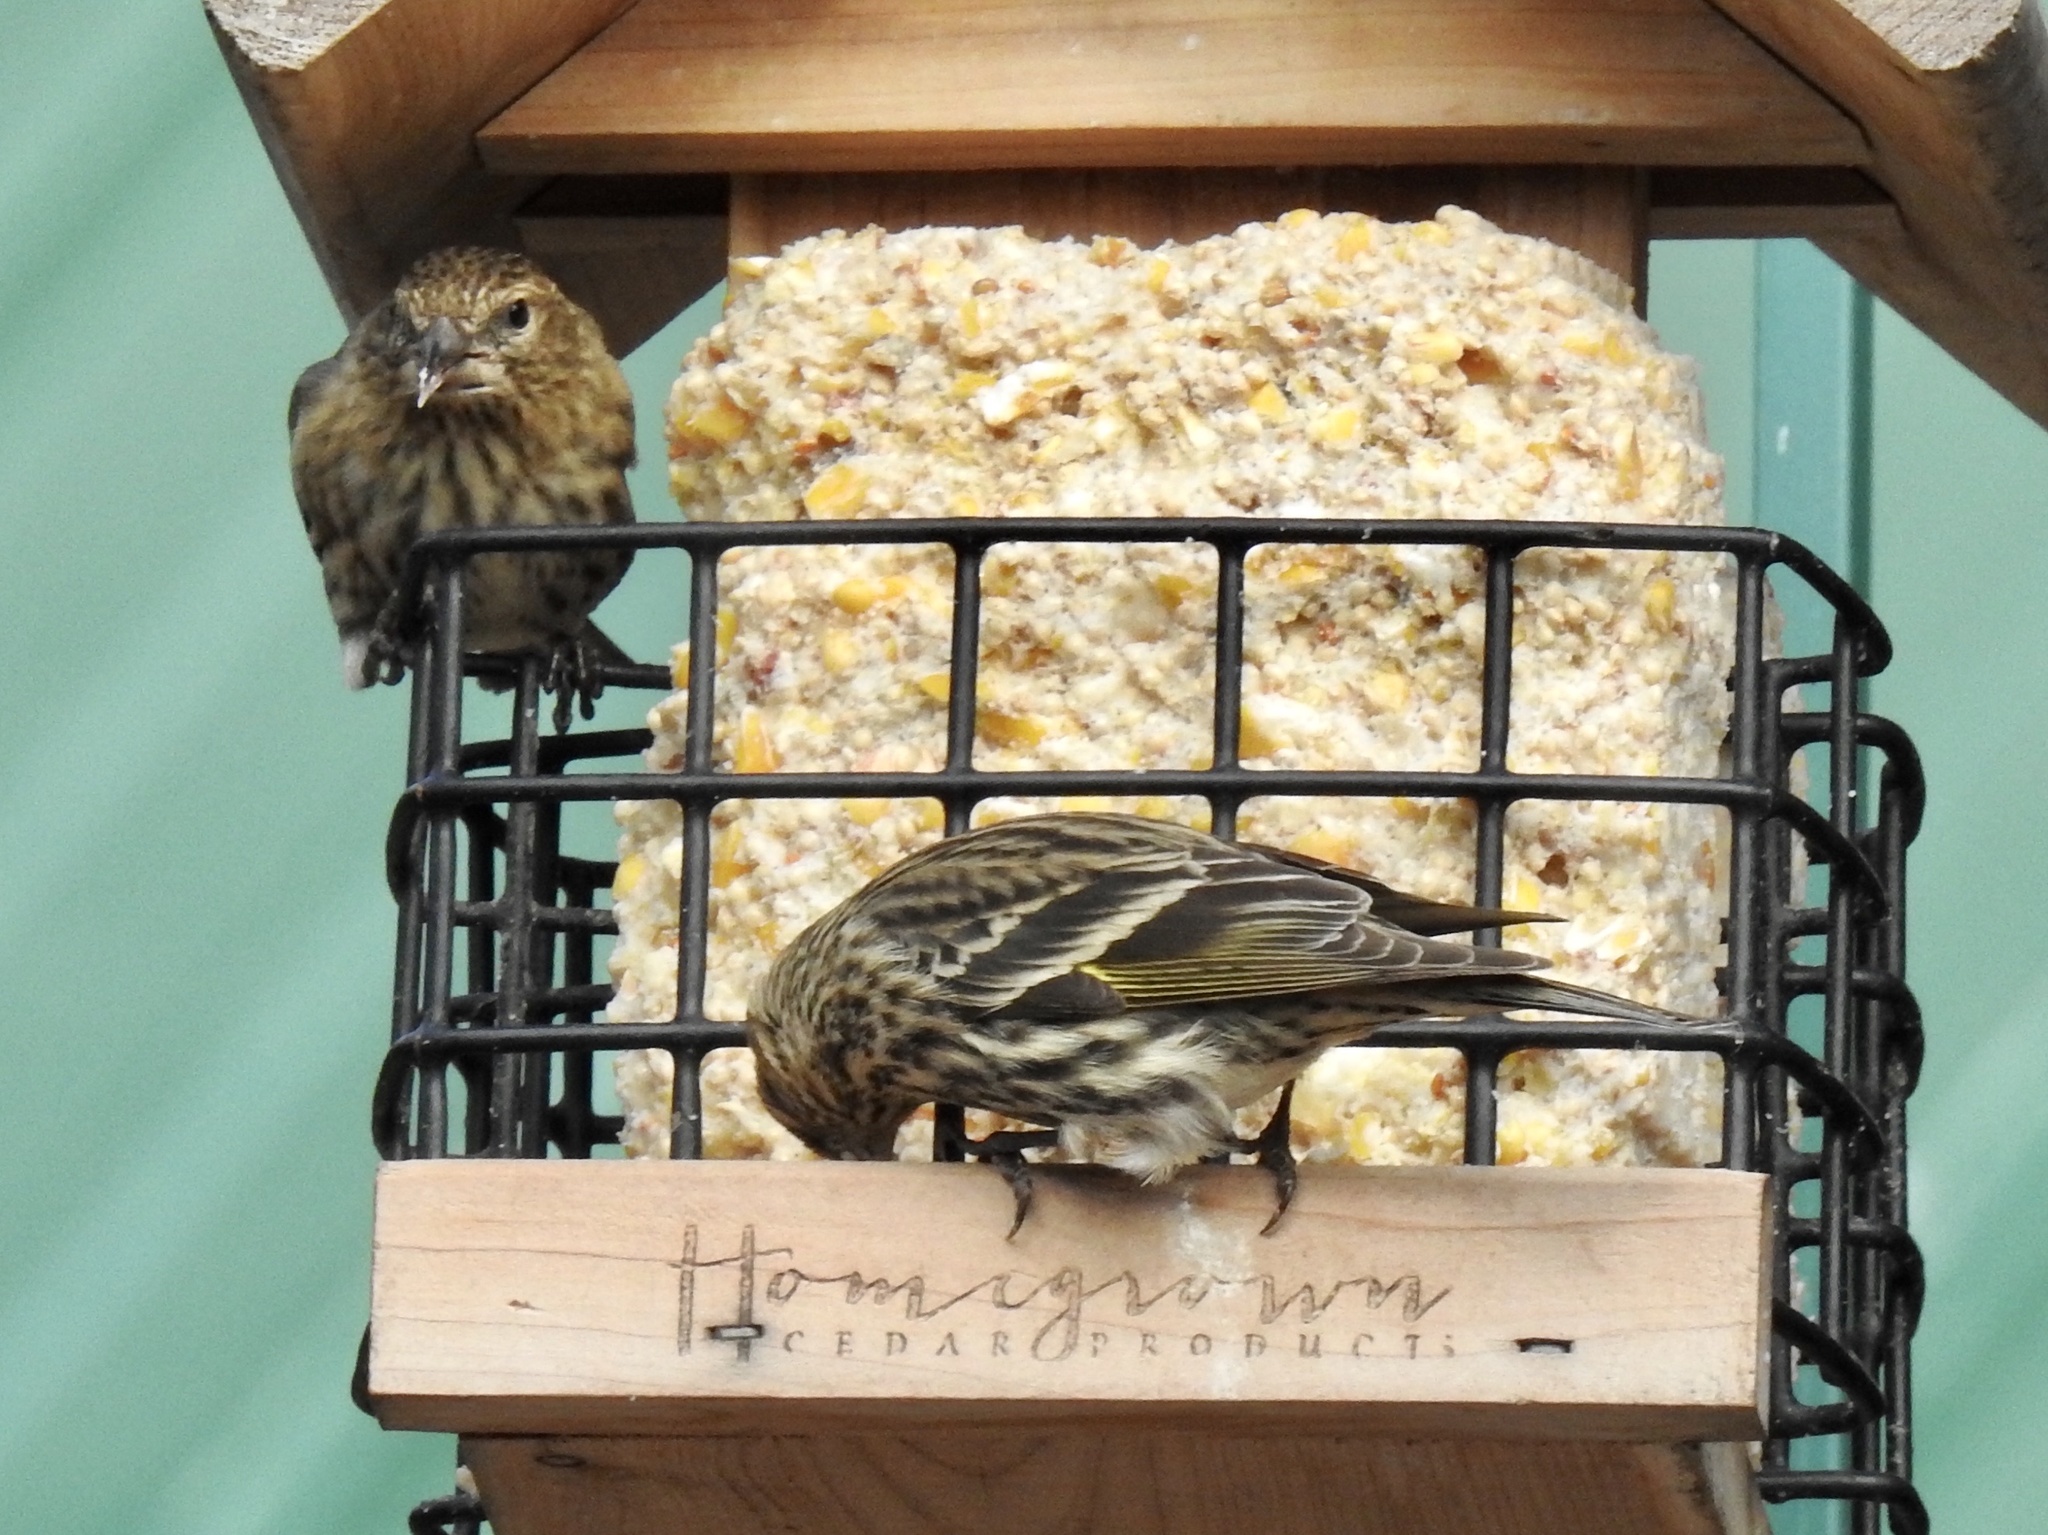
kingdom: Animalia
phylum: Chordata
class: Aves
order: Passeriformes
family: Fringillidae
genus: Spinus
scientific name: Spinus pinus
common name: Pine siskin
